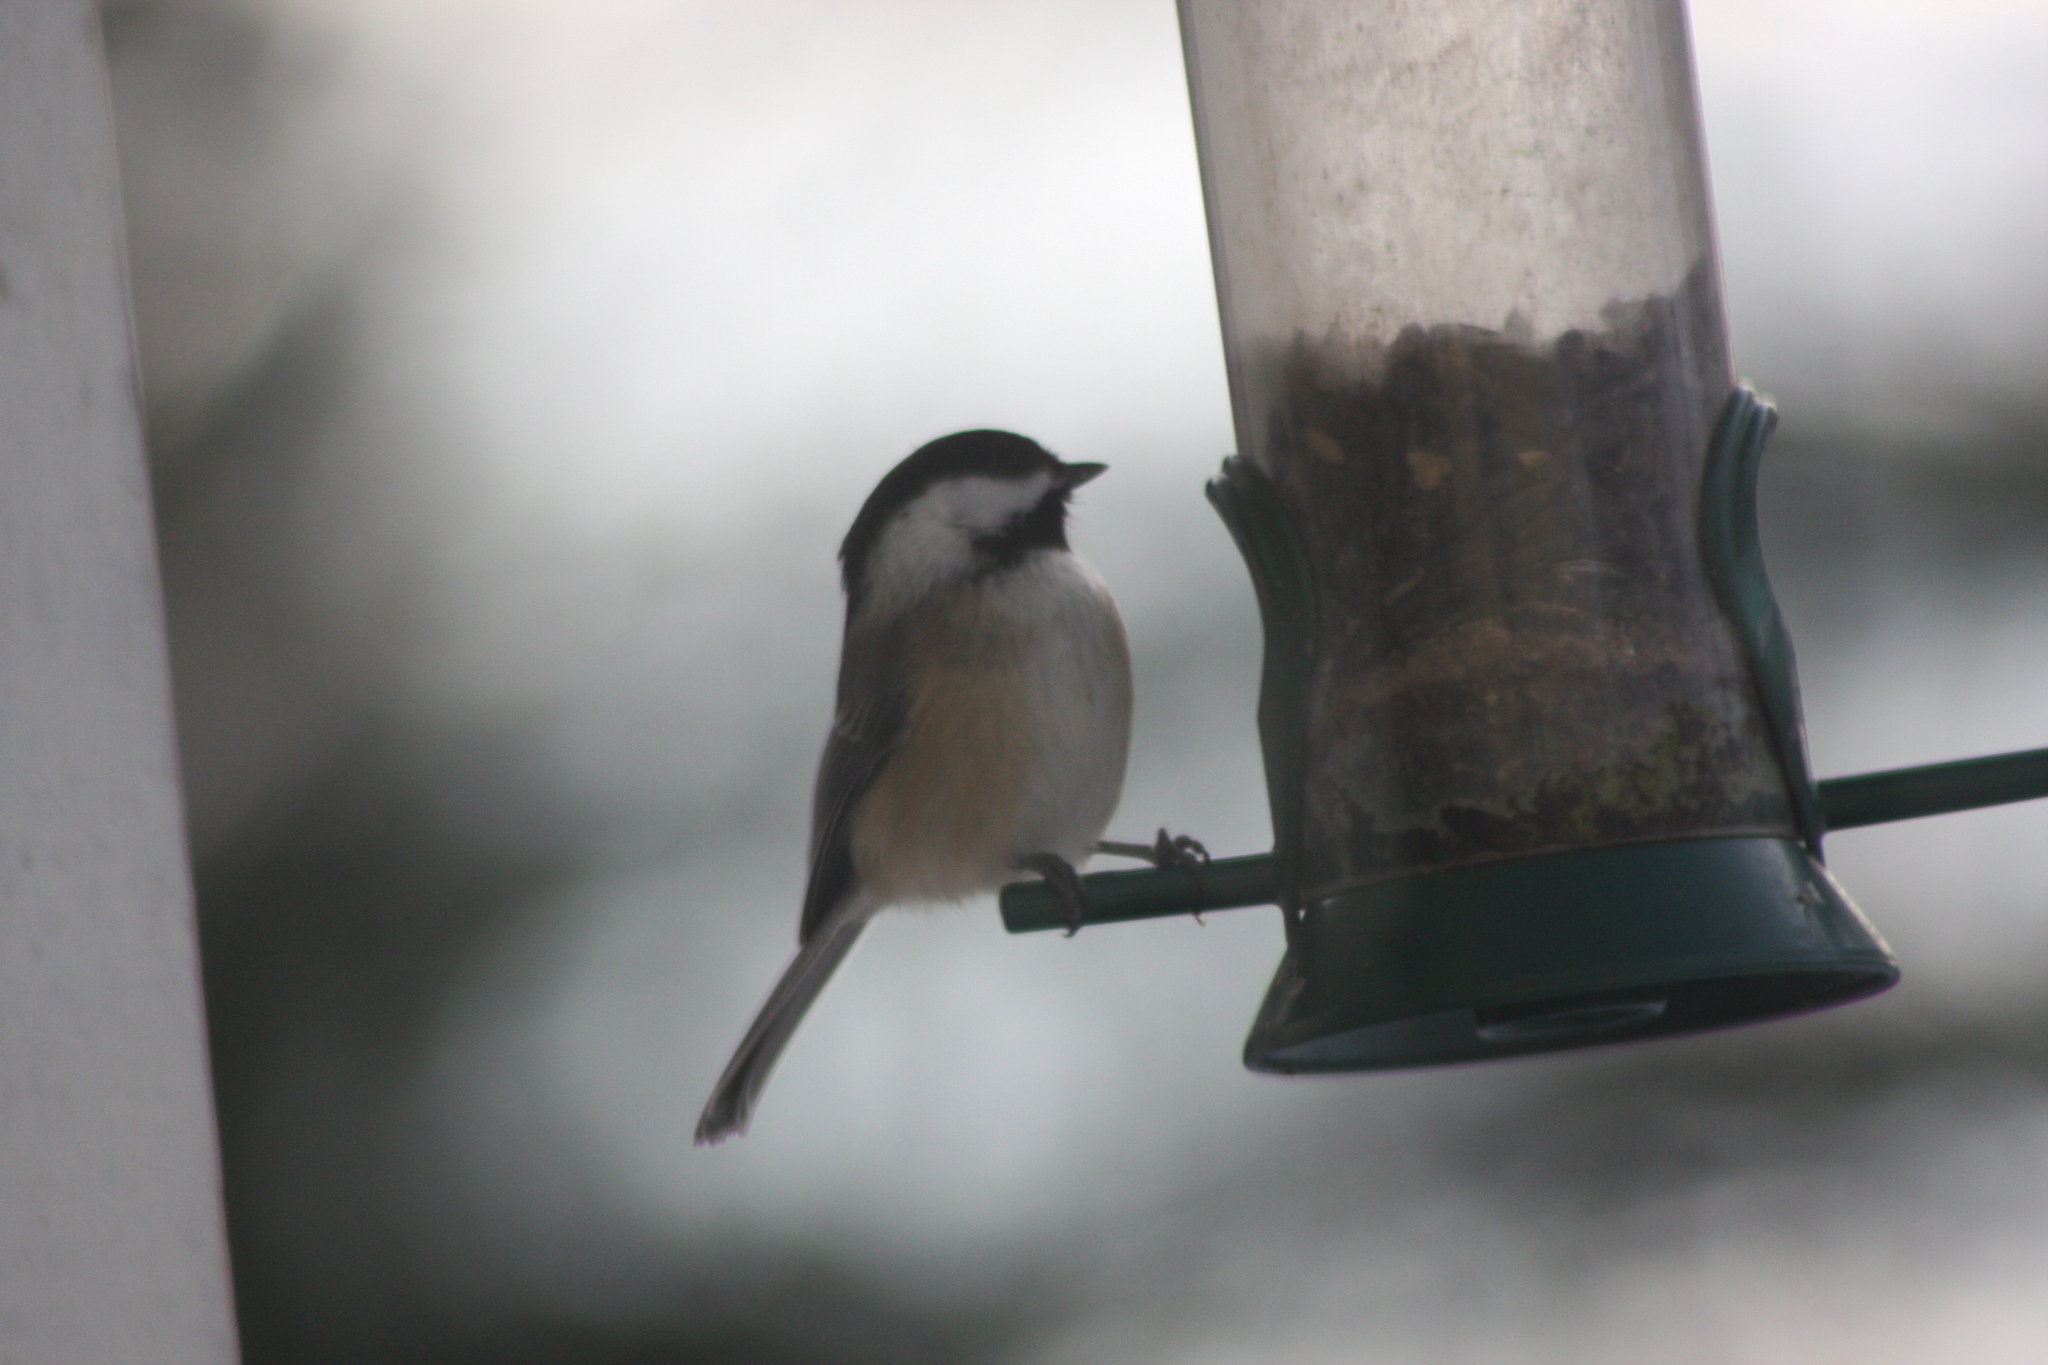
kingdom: Animalia
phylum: Chordata
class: Aves
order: Passeriformes
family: Paridae
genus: Poecile
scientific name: Poecile atricapillus
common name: Black-capped chickadee
